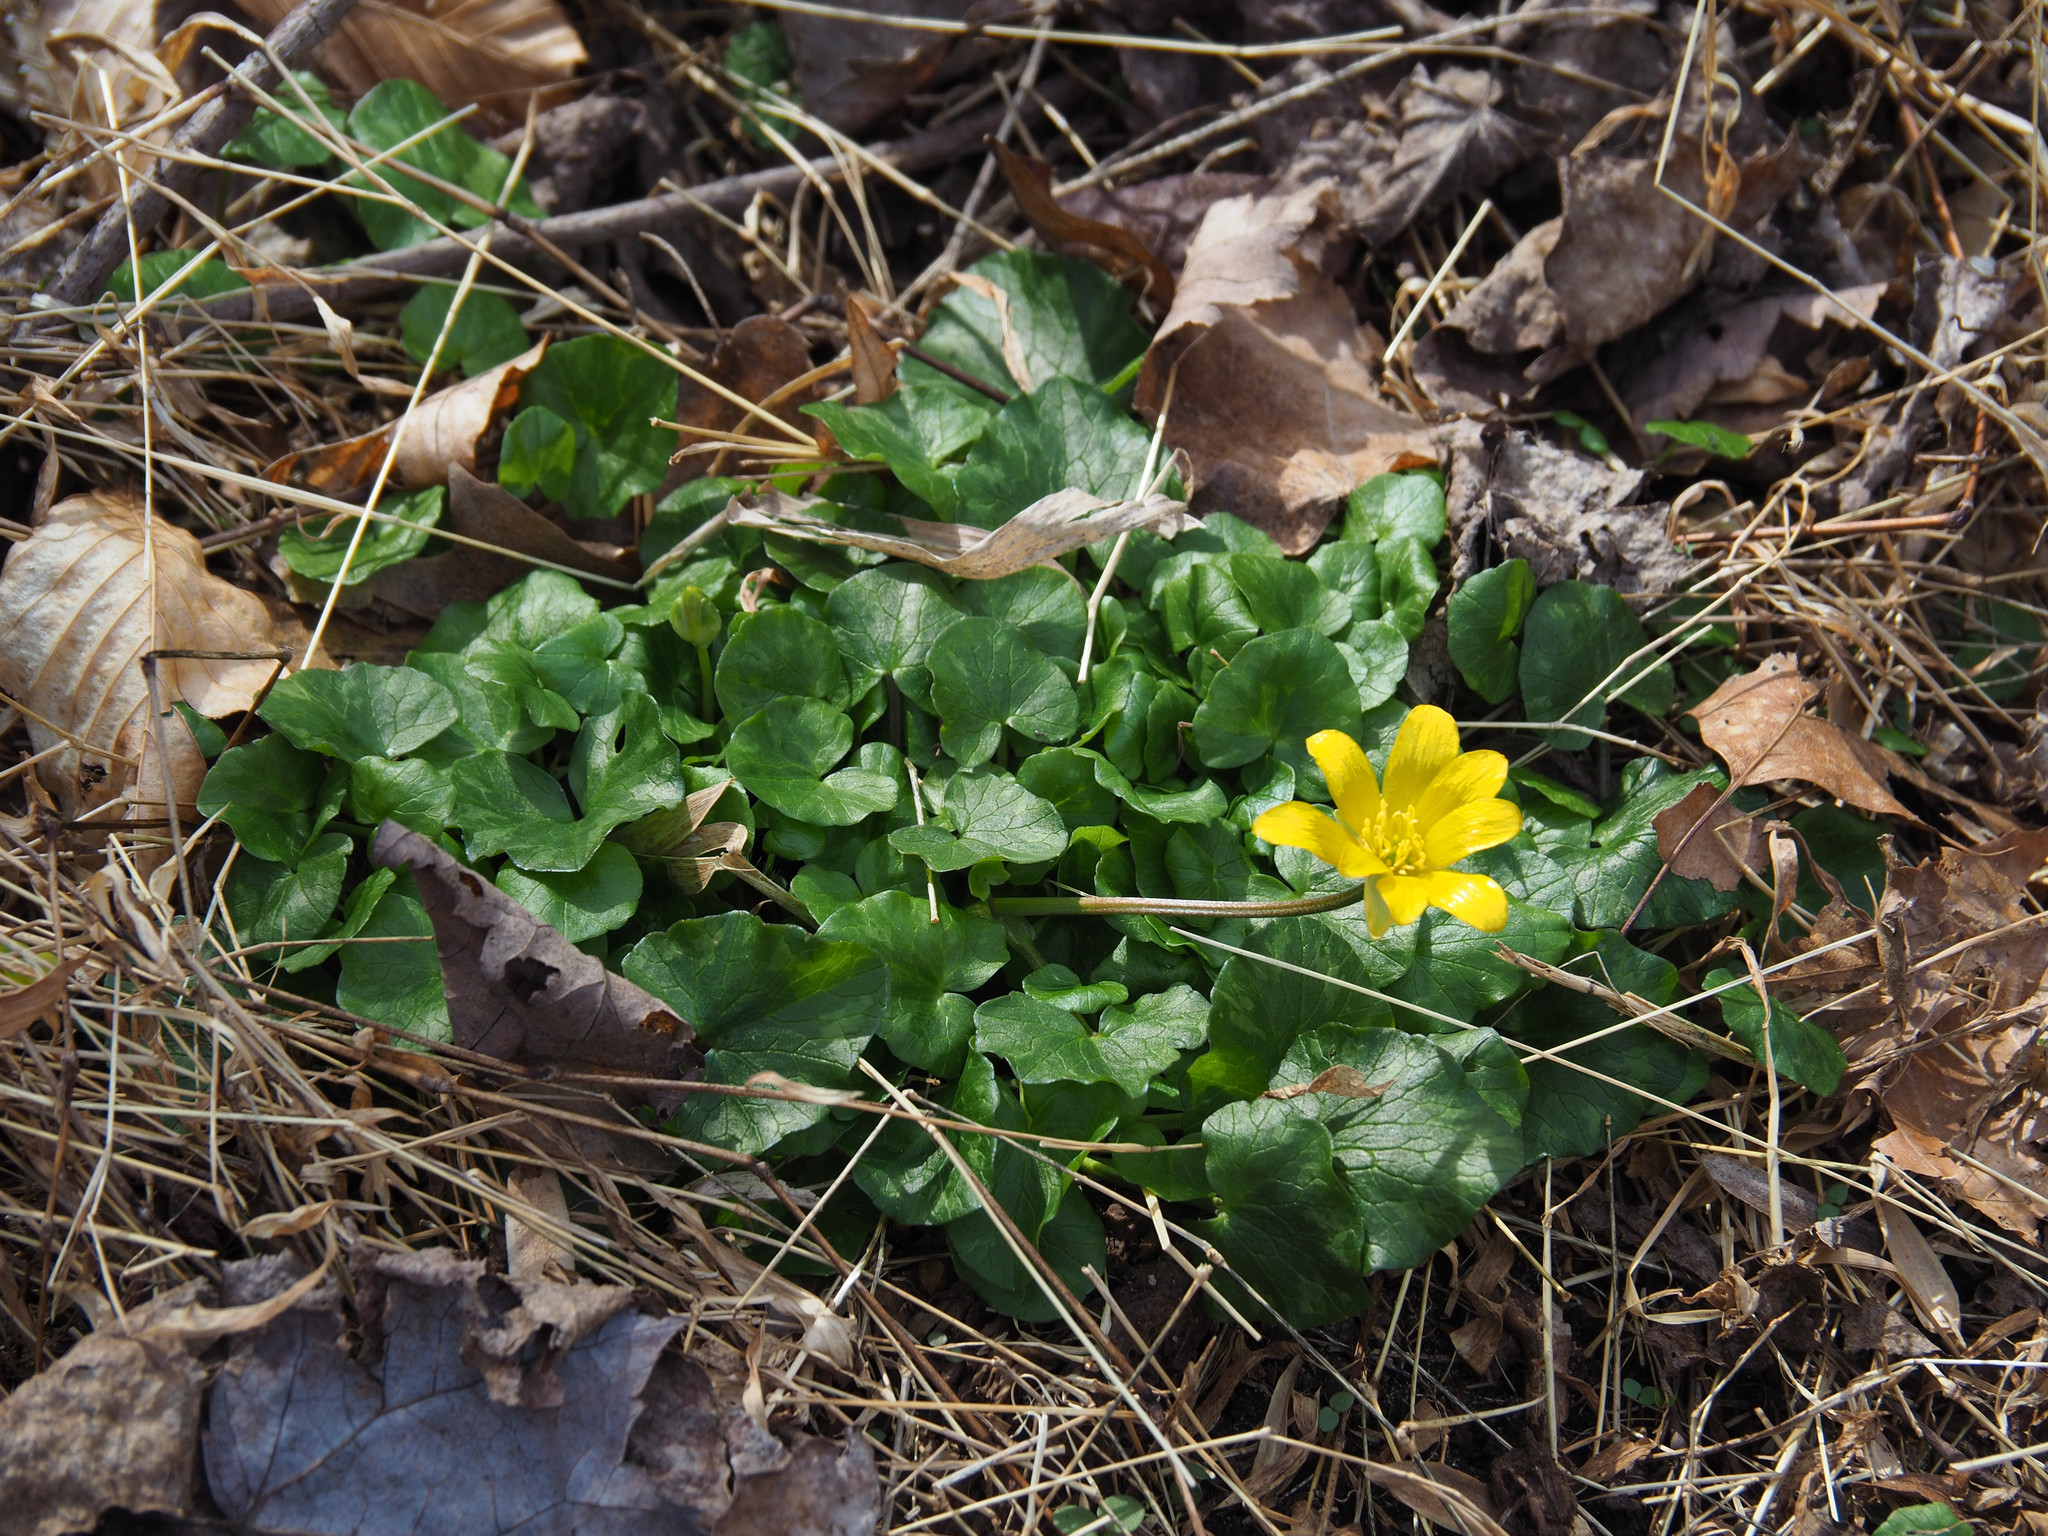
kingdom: Plantae
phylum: Tracheophyta
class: Magnoliopsida
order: Ranunculales
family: Ranunculaceae
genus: Ficaria
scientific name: Ficaria verna
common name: Lesser celandine
